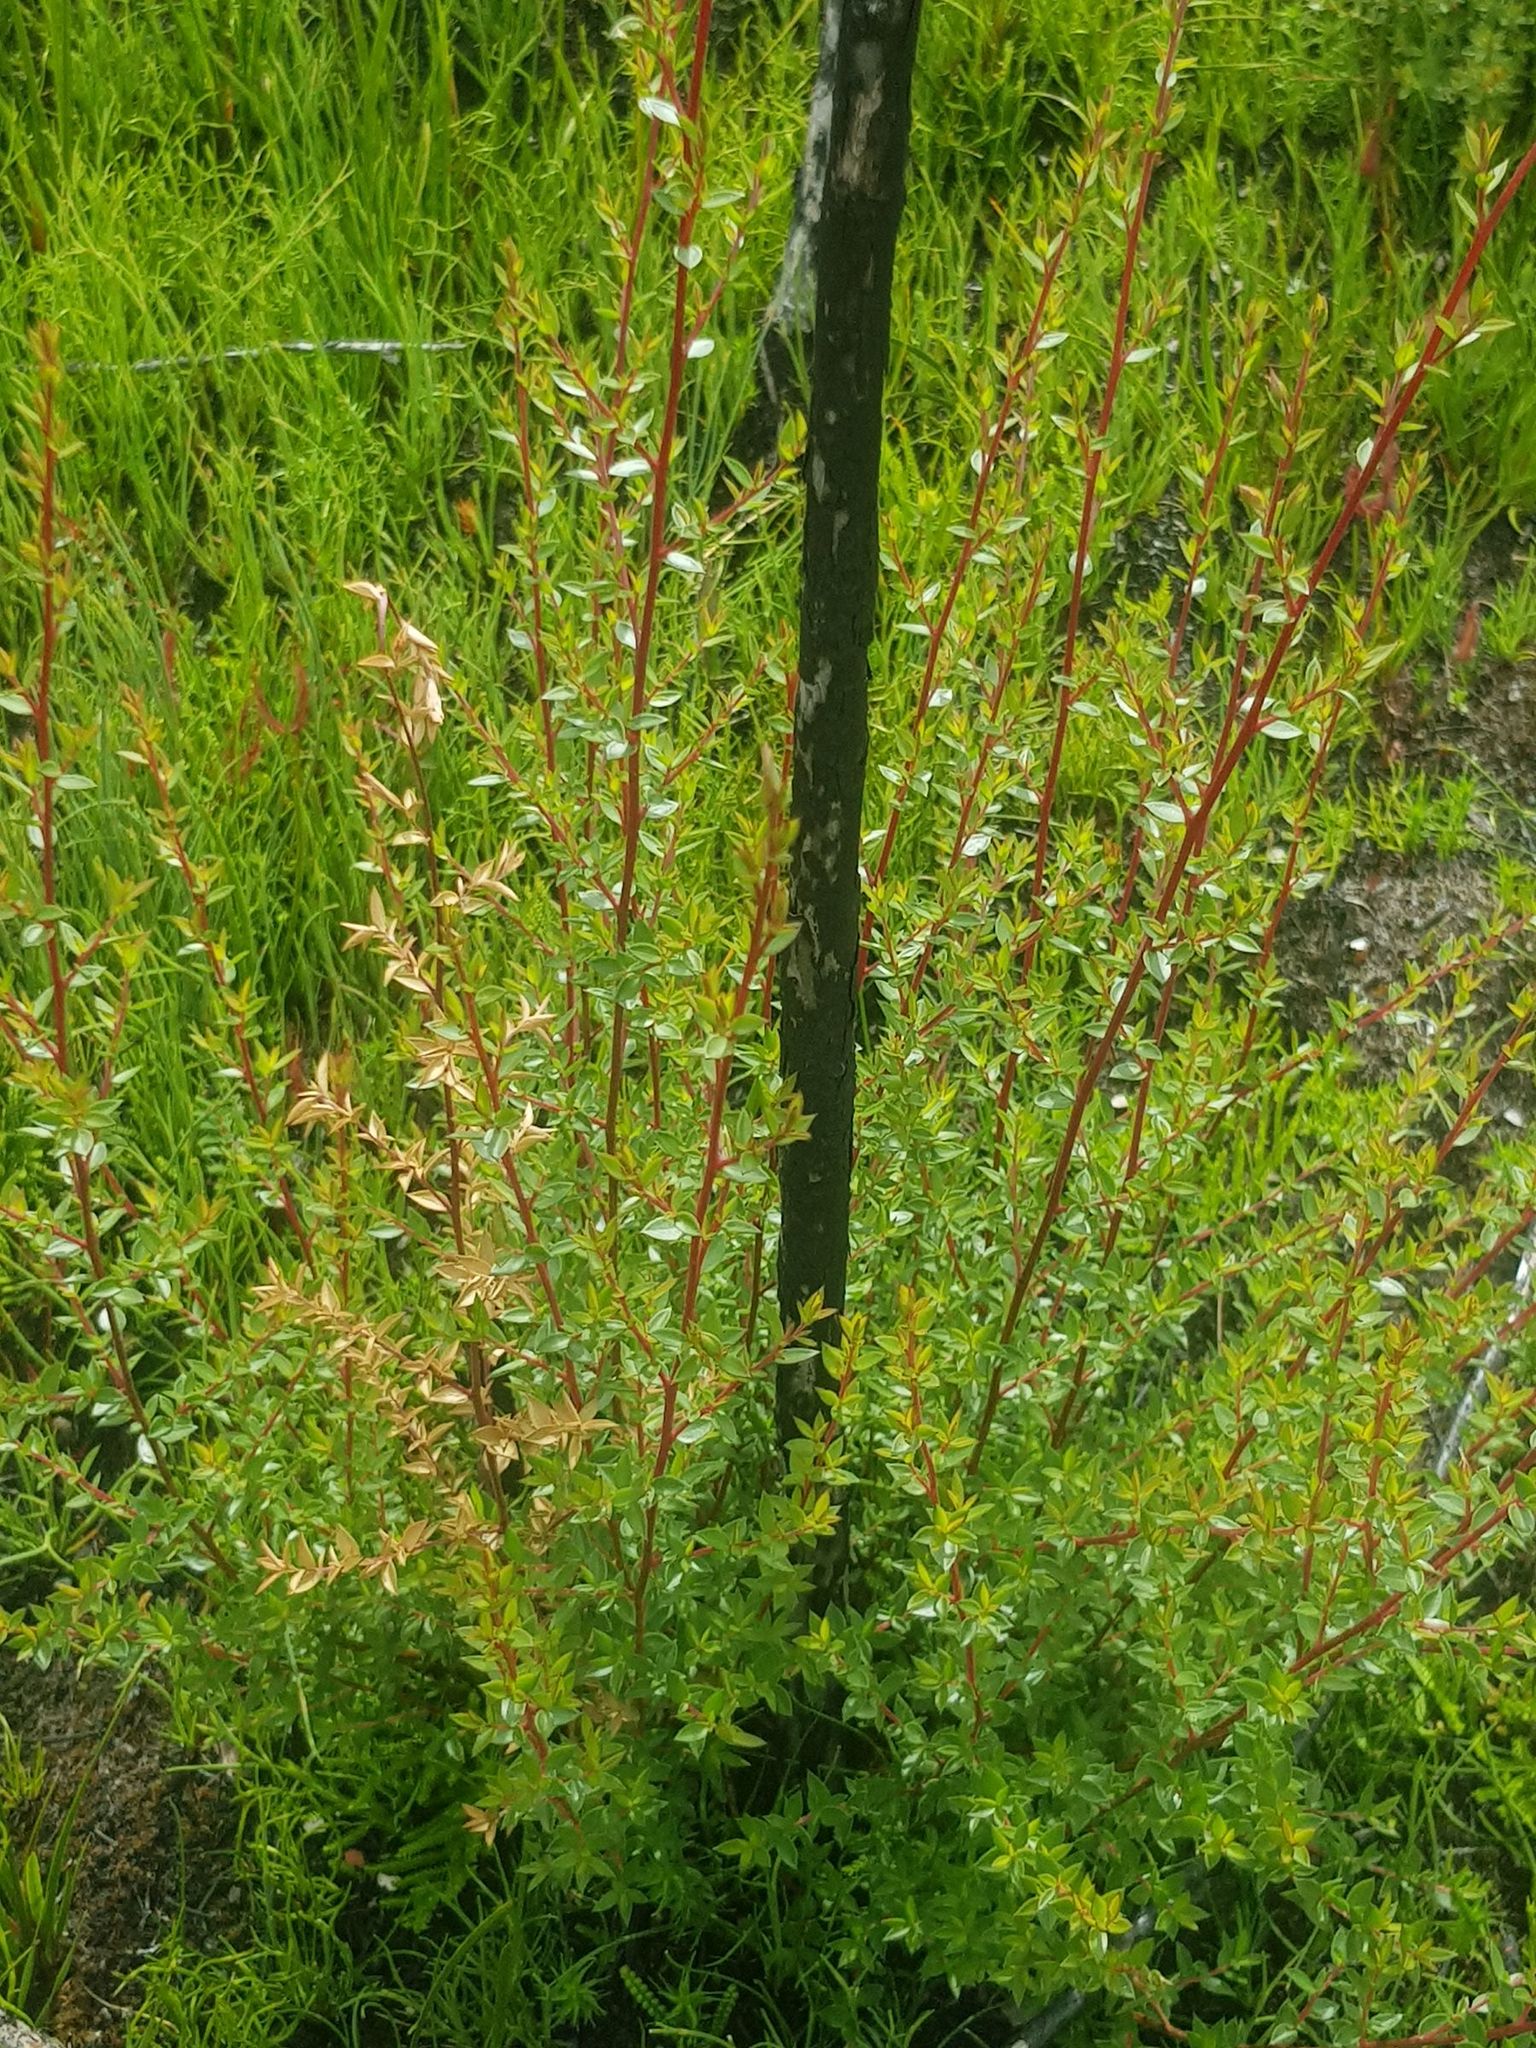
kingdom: Plantae
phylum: Tracheophyta
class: Magnoliopsida
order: Myrtales
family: Myrtaceae
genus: Leptospermum
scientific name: Leptospermum scoparium
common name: Broom tea-tree
